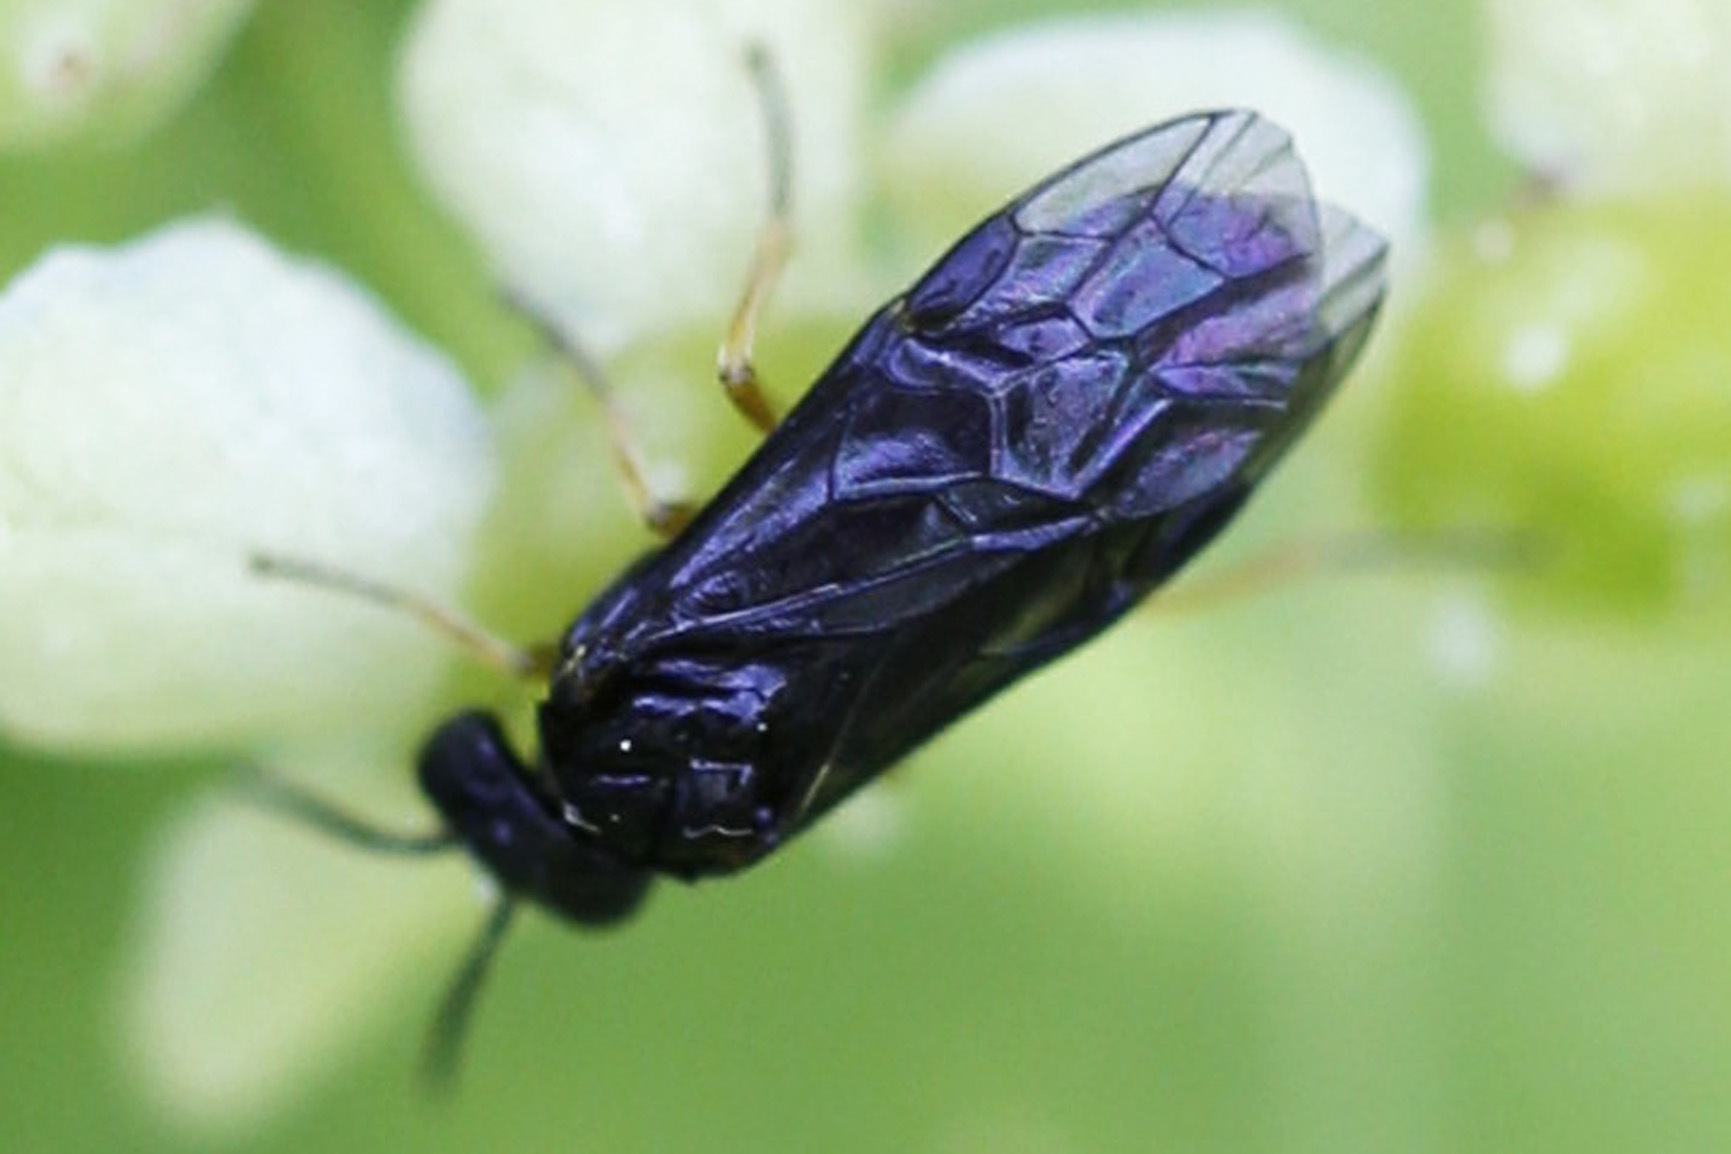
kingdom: Animalia
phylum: Arthropoda
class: Insecta
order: Hymenoptera
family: Tenthredinidae
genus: Nesoselandria
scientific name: Nesoselandria morio
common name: Tenthredid wasp
